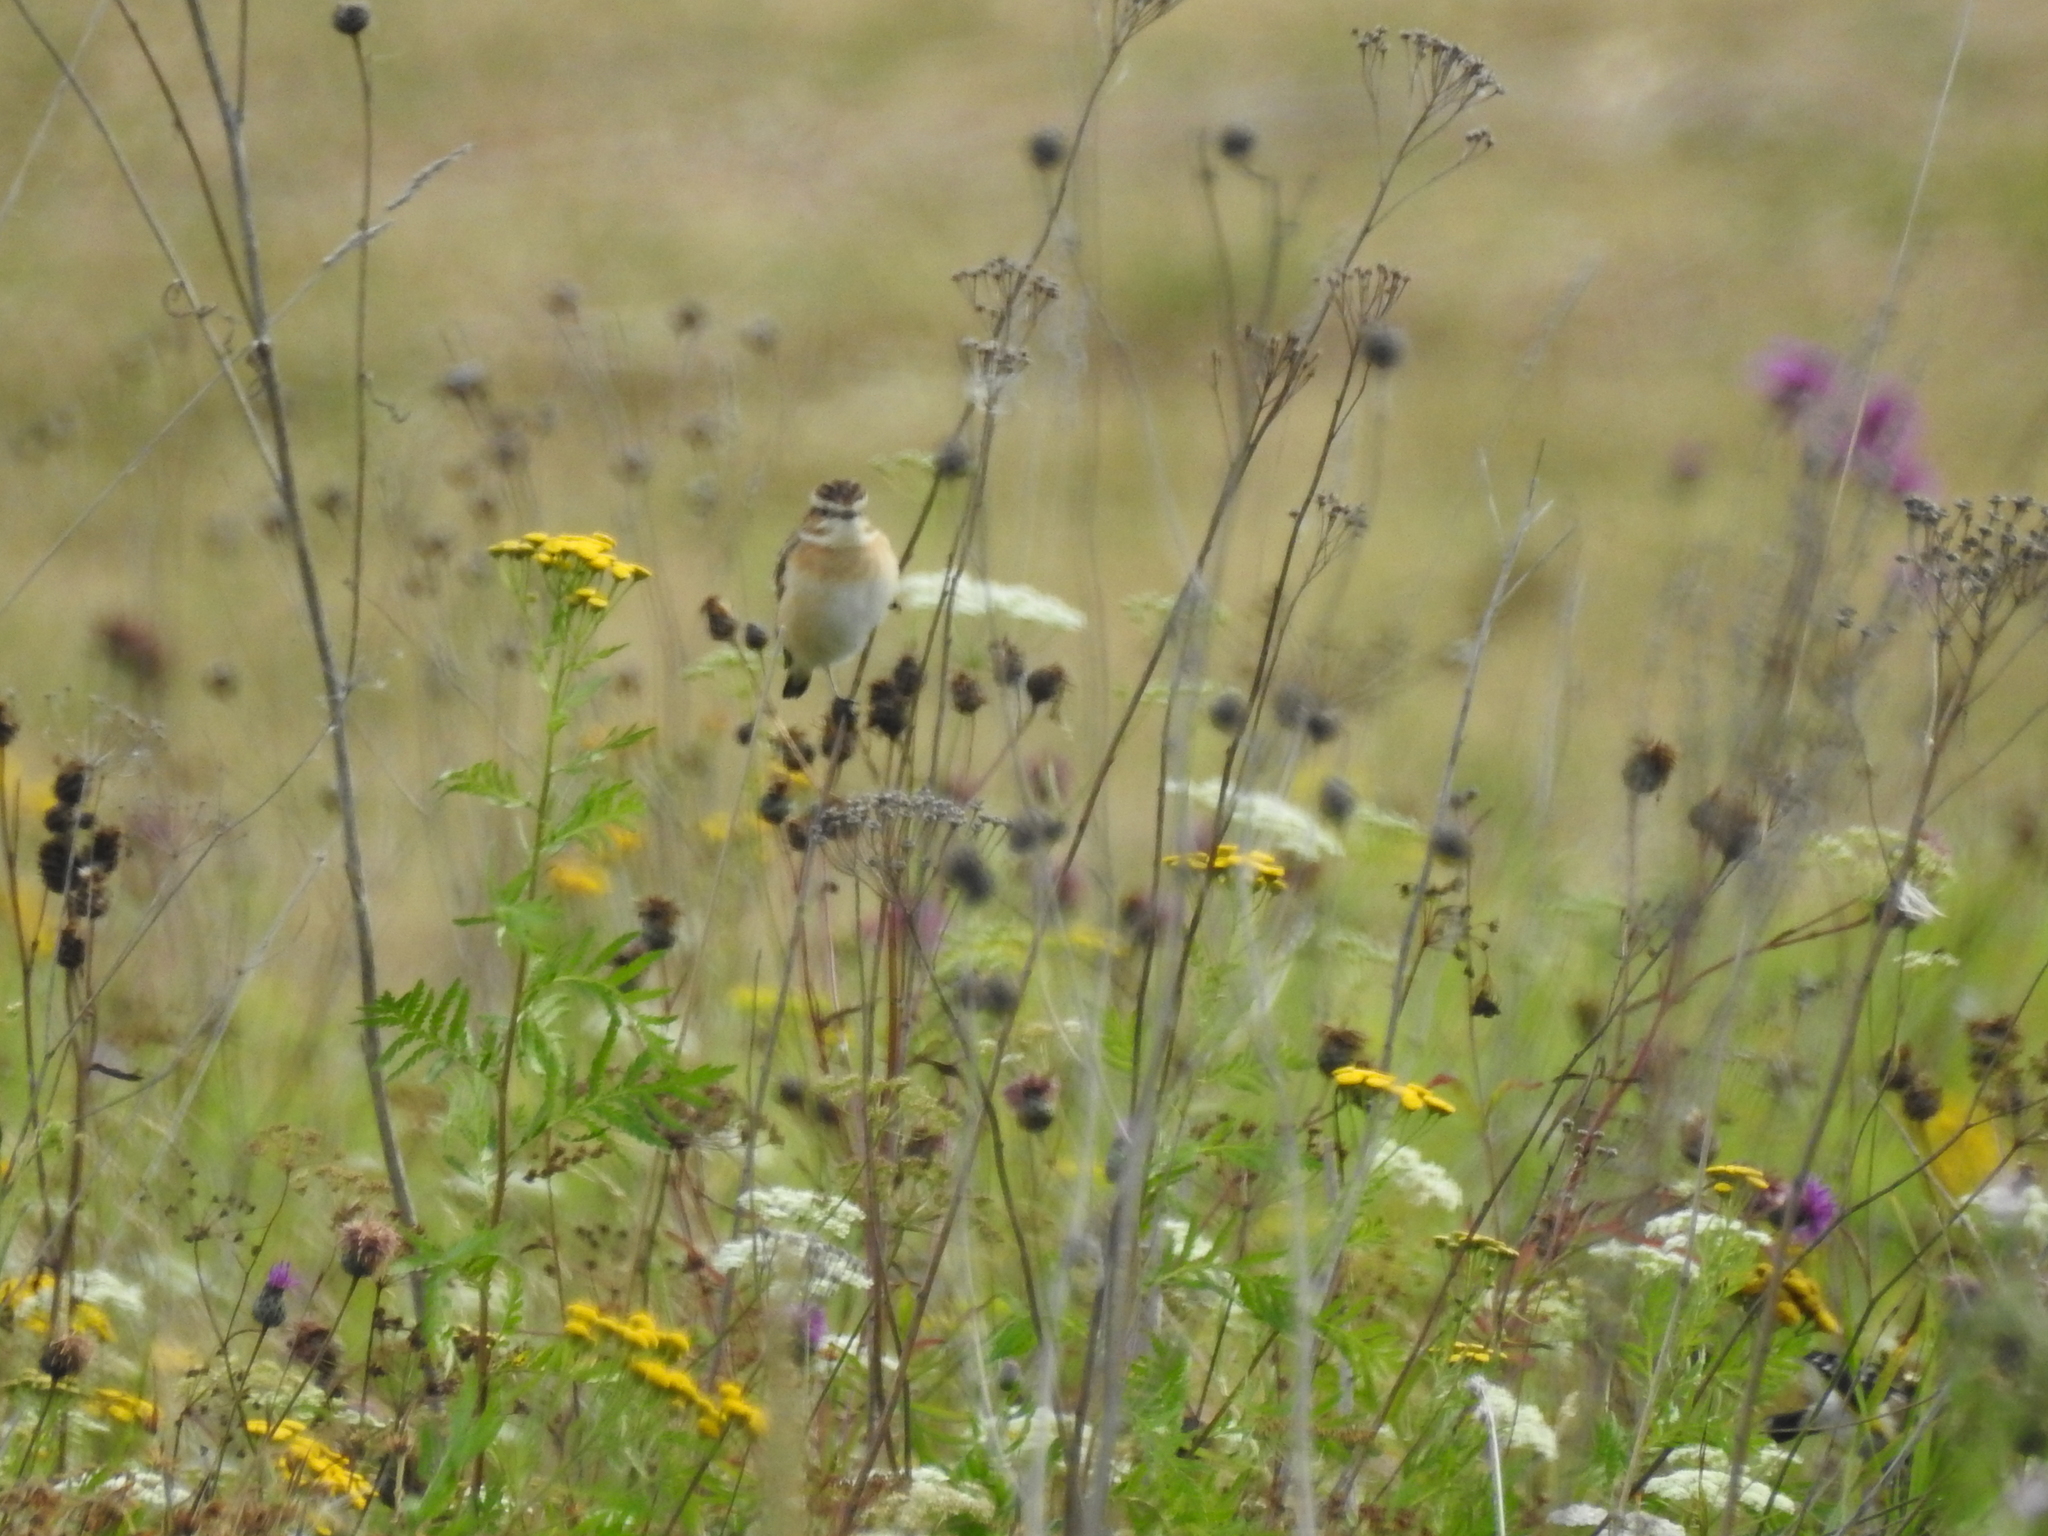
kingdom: Animalia
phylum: Chordata
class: Aves
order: Passeriformes
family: Muscicapidae
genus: Saxicola
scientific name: Saxicola rubetra
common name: Whinchat
